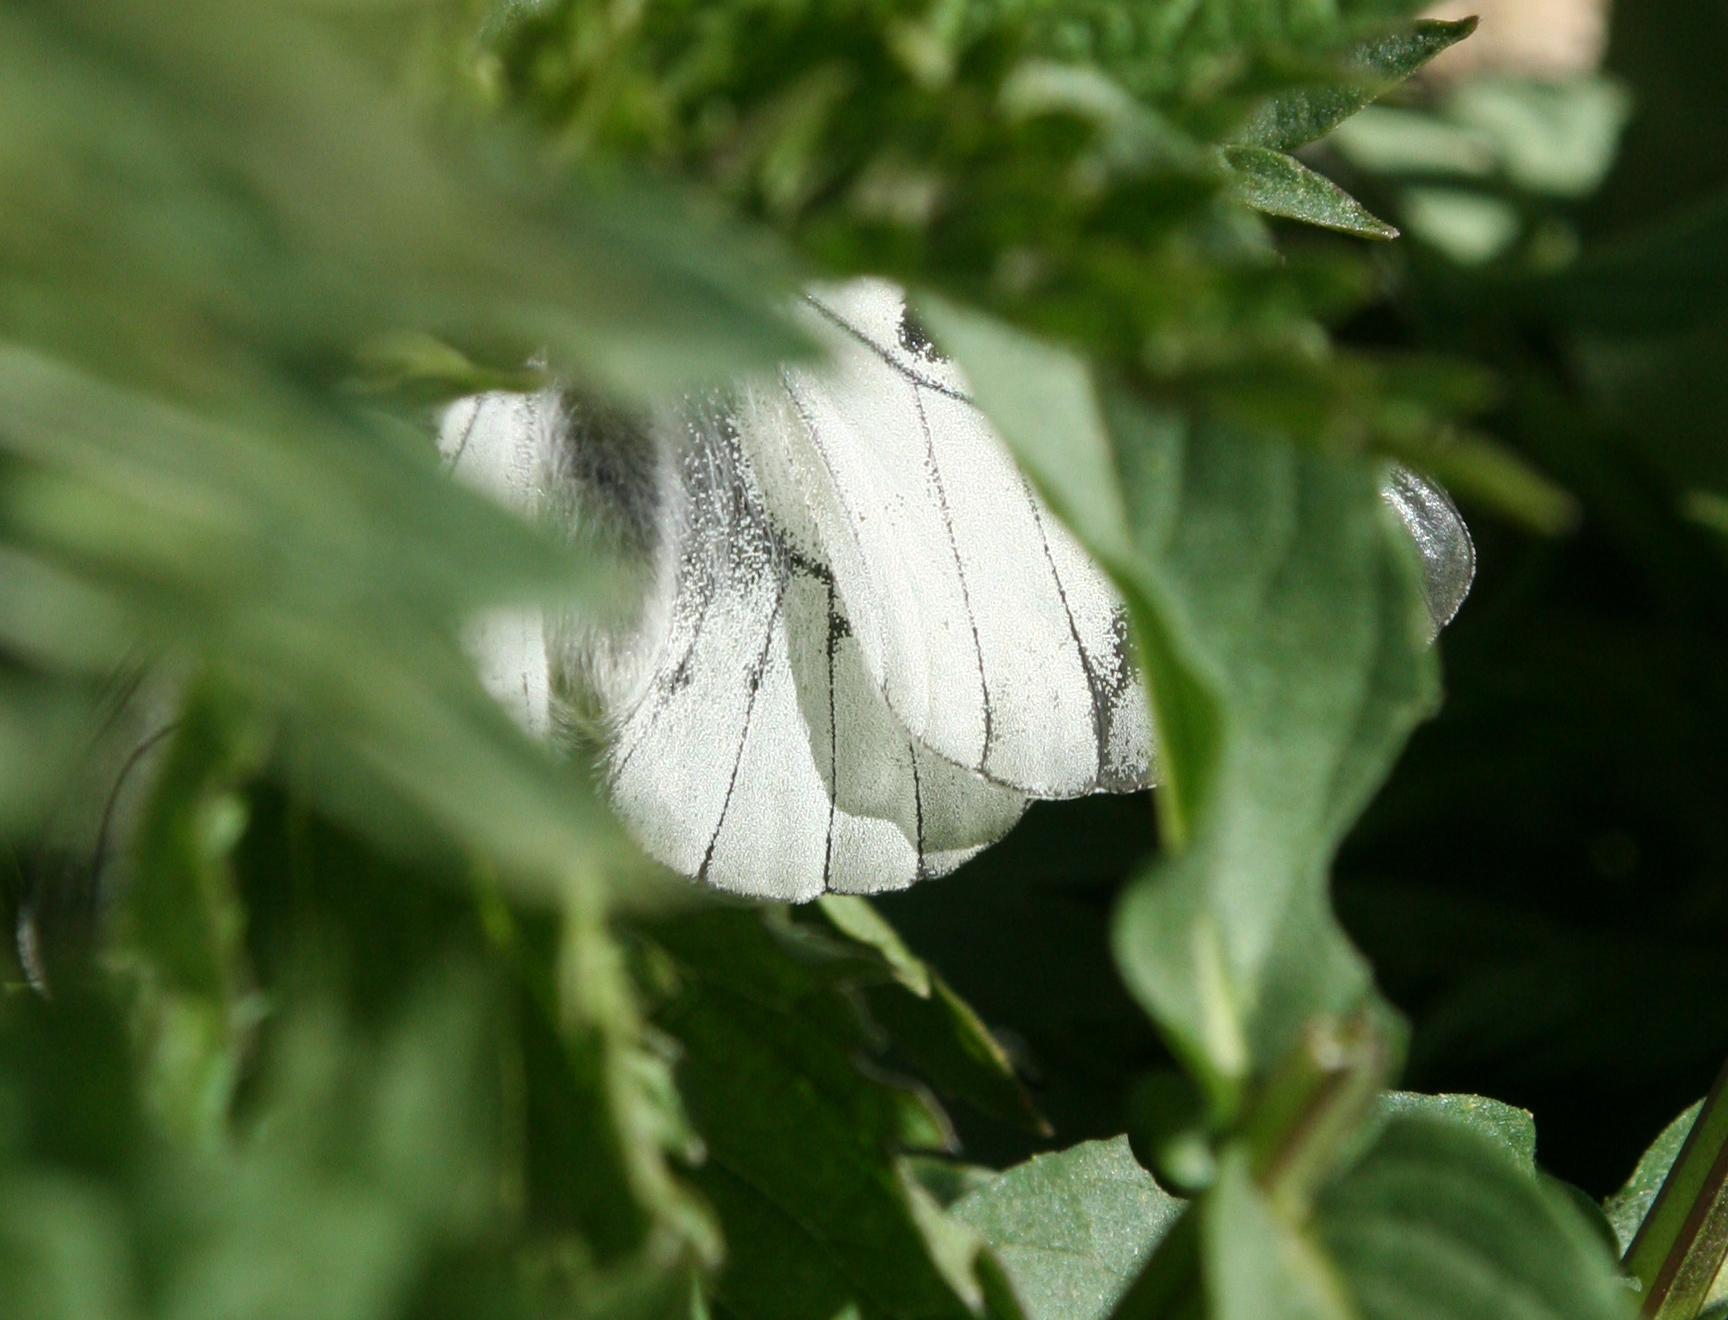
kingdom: Animalia
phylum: Arthropoda
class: Insecta
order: Lepidoptera
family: Papilionidae
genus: Parnassius
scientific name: Parnassius mnemosyne
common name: Clouded apollo
